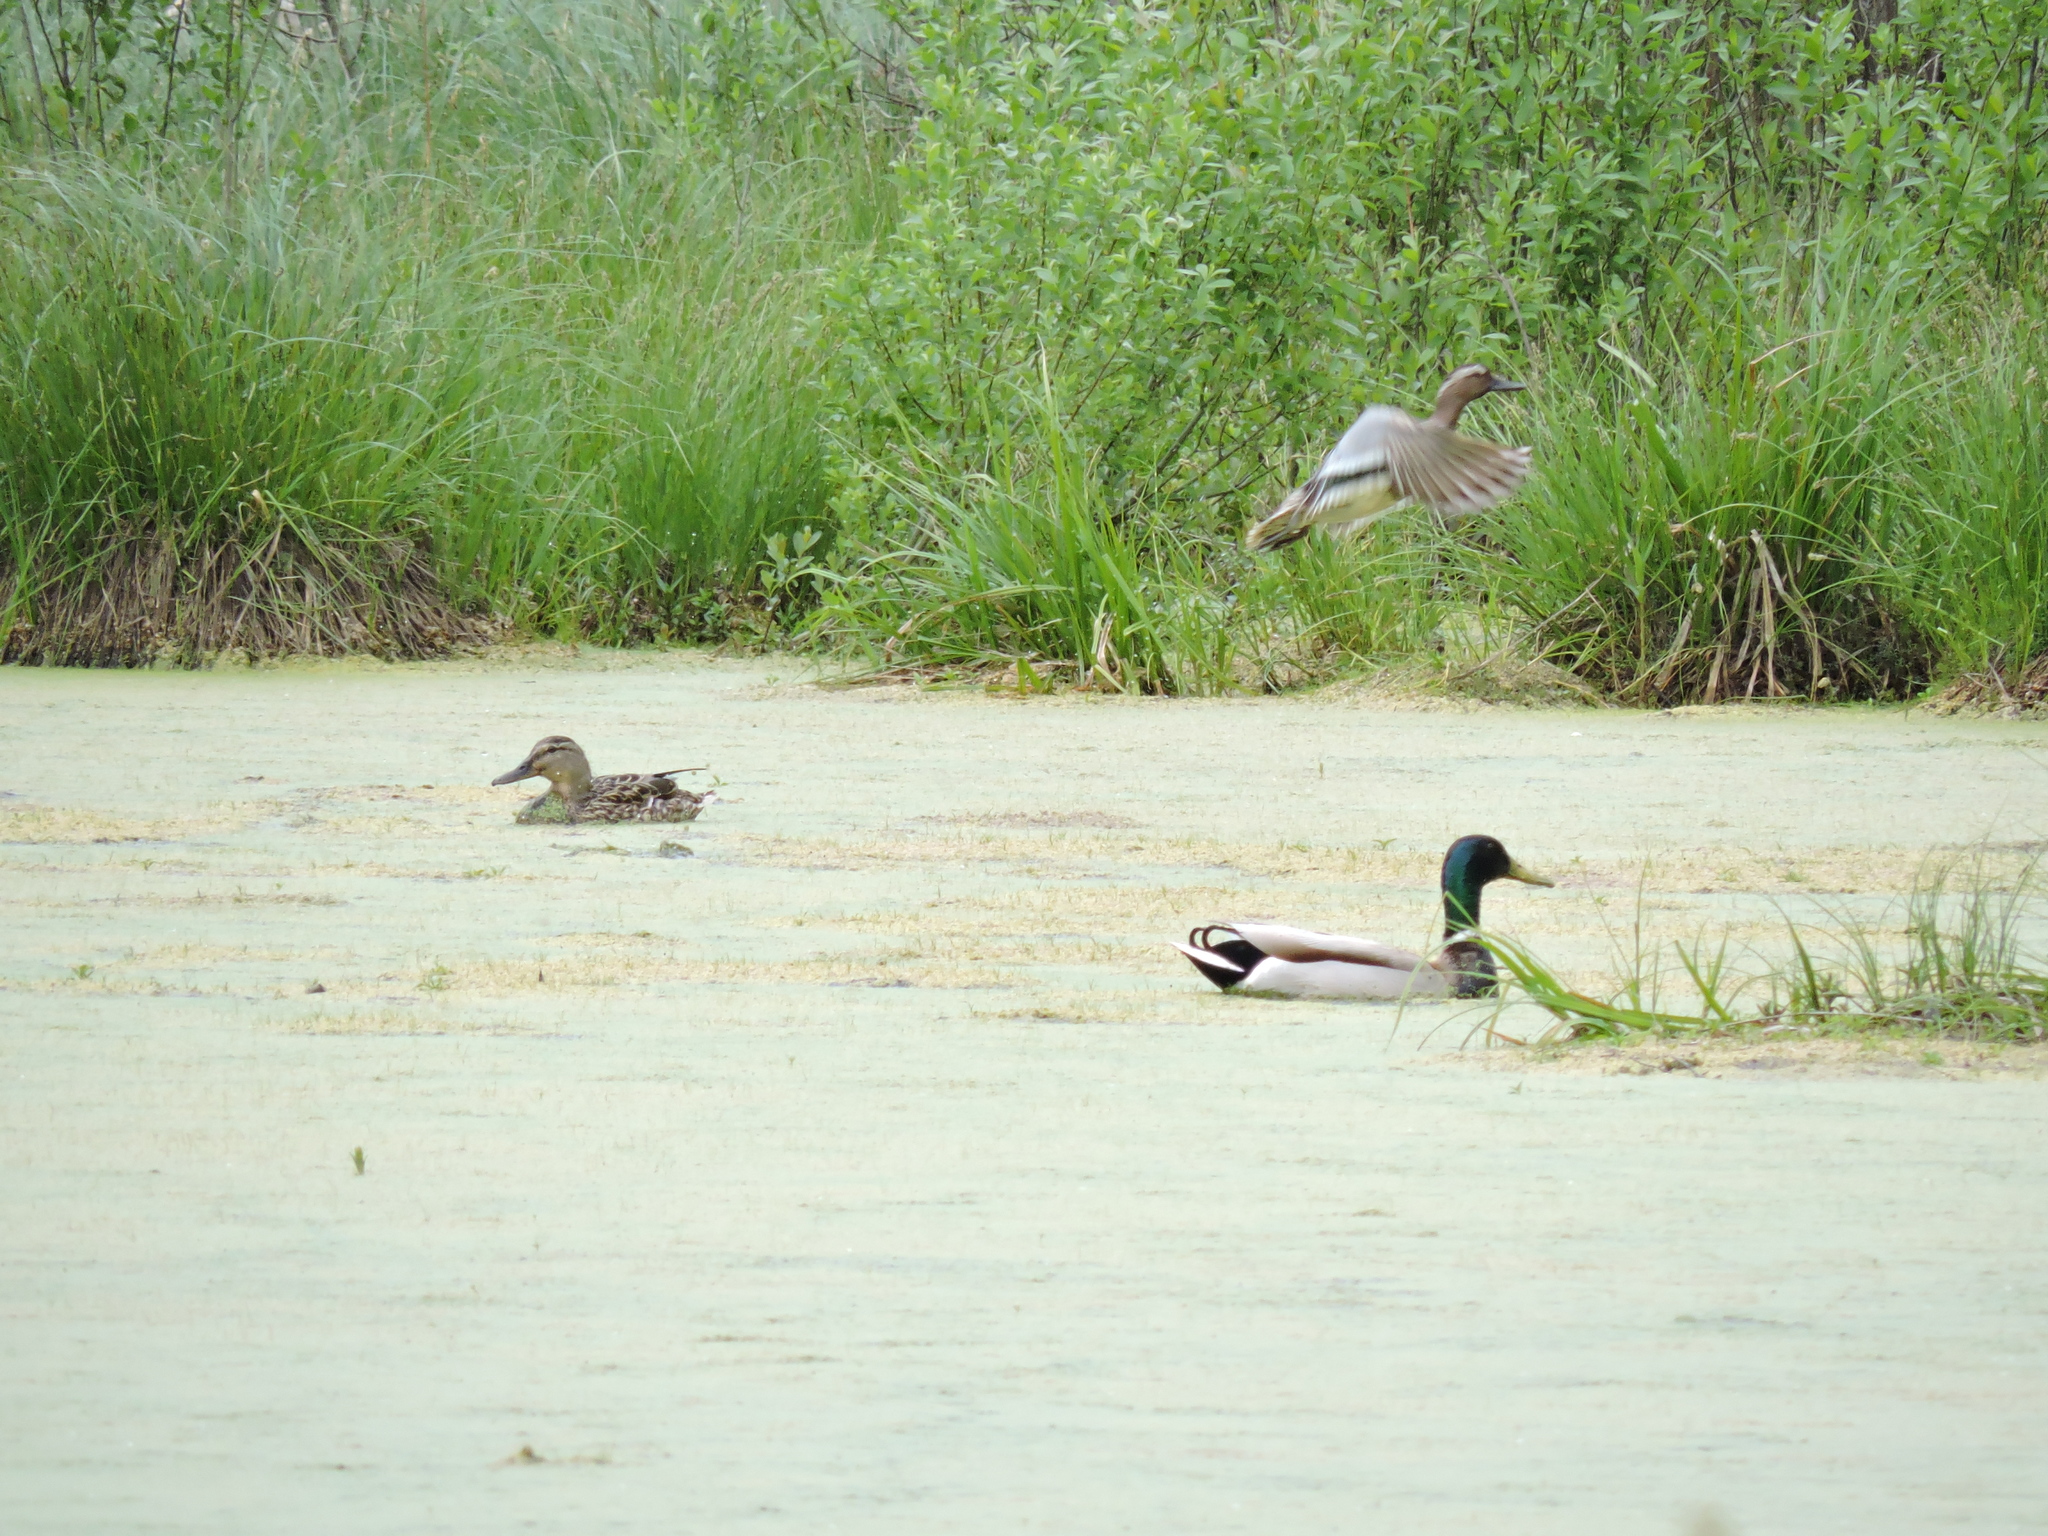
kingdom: Animalia
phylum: Chordata
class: Aves
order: Anseriformes
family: Anatidae
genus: Spatula
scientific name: Spatula querquedula
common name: Garganey
